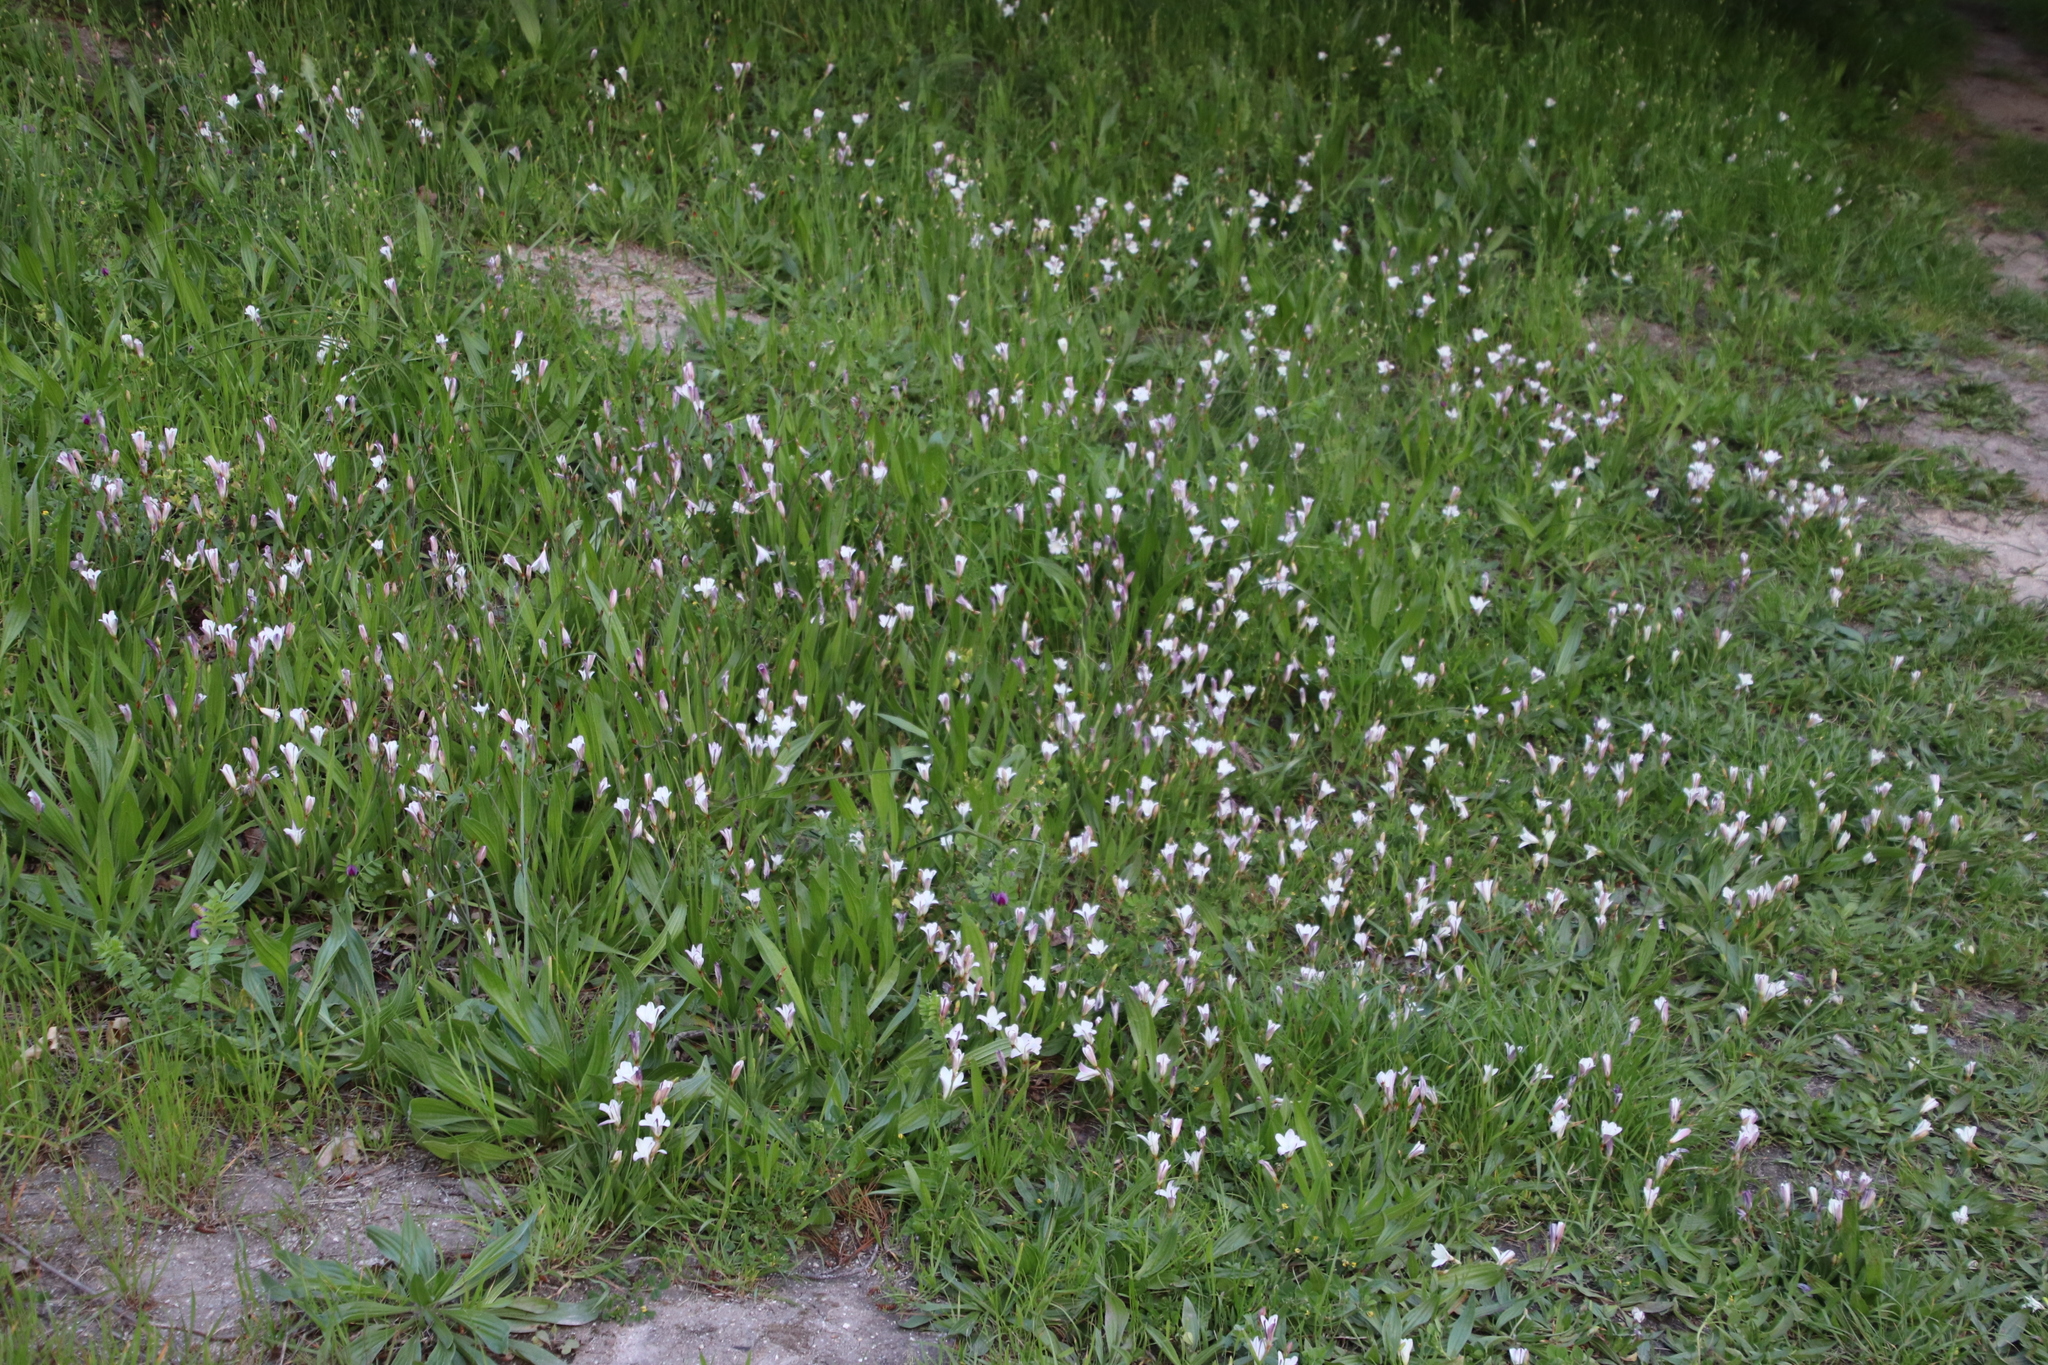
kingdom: Plantae
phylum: Tracheophyta
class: Liliopsida
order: Asparagales
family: Iridaceae
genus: Sparaxis
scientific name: Sparaxis bulbifera
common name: Harlequin-flower
